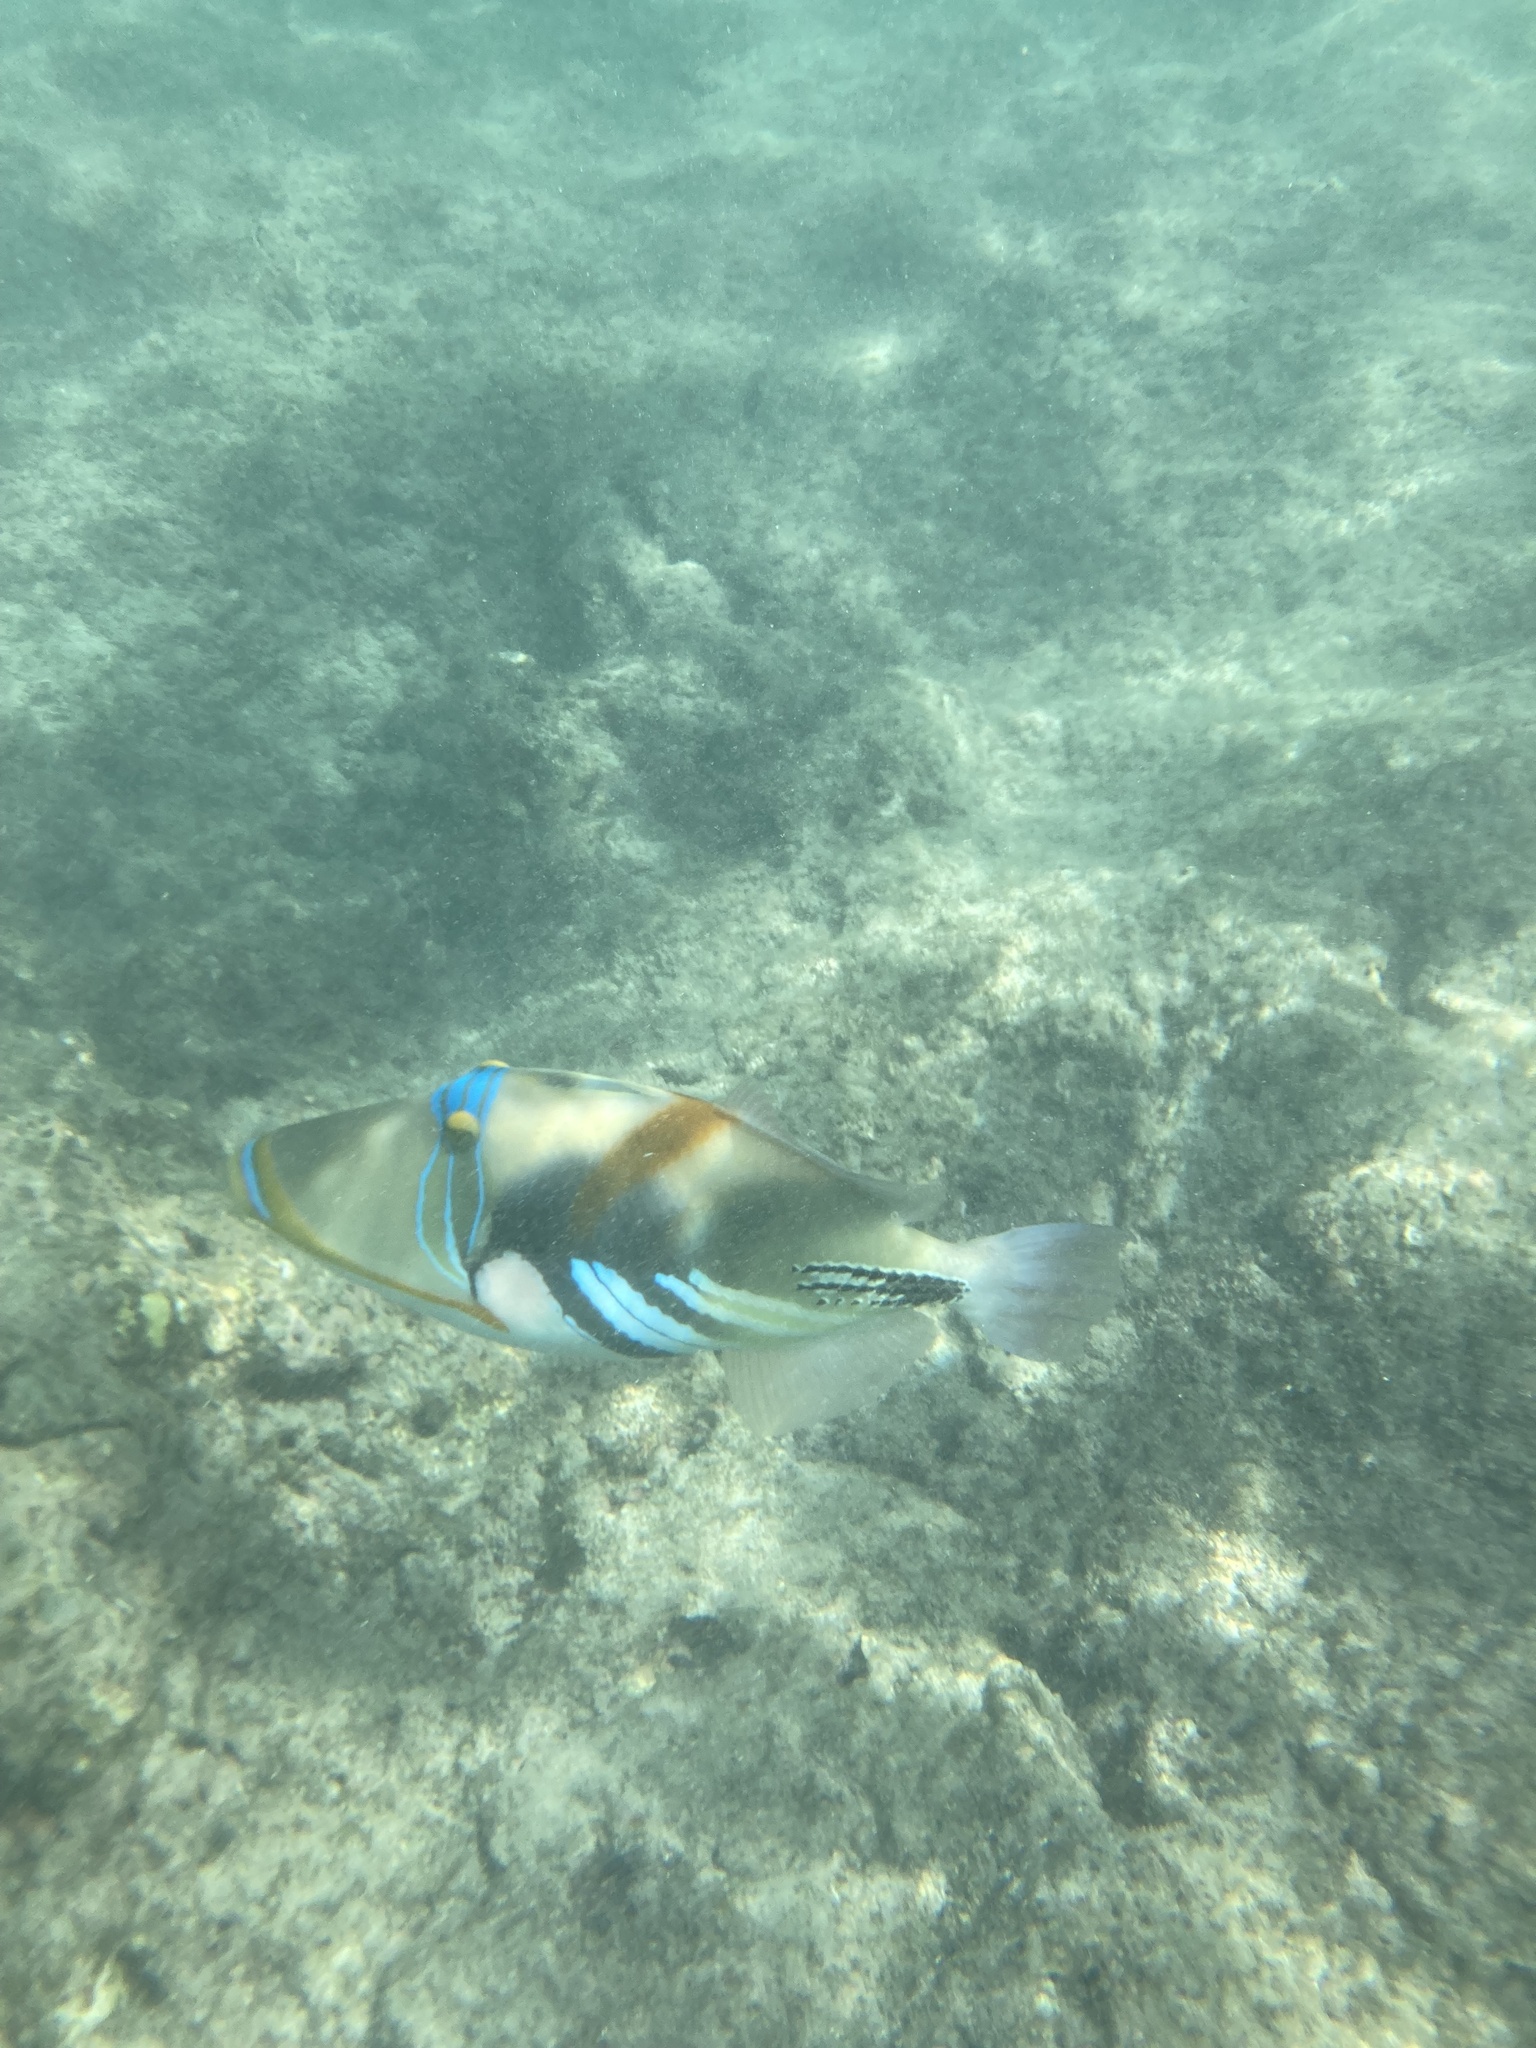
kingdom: Animalia
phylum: Chordata
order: Tetraodontiformes
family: Balistidae
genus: Rhinecanthus
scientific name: Rhinecanthus aculeatus
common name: White-banded triggerfish
